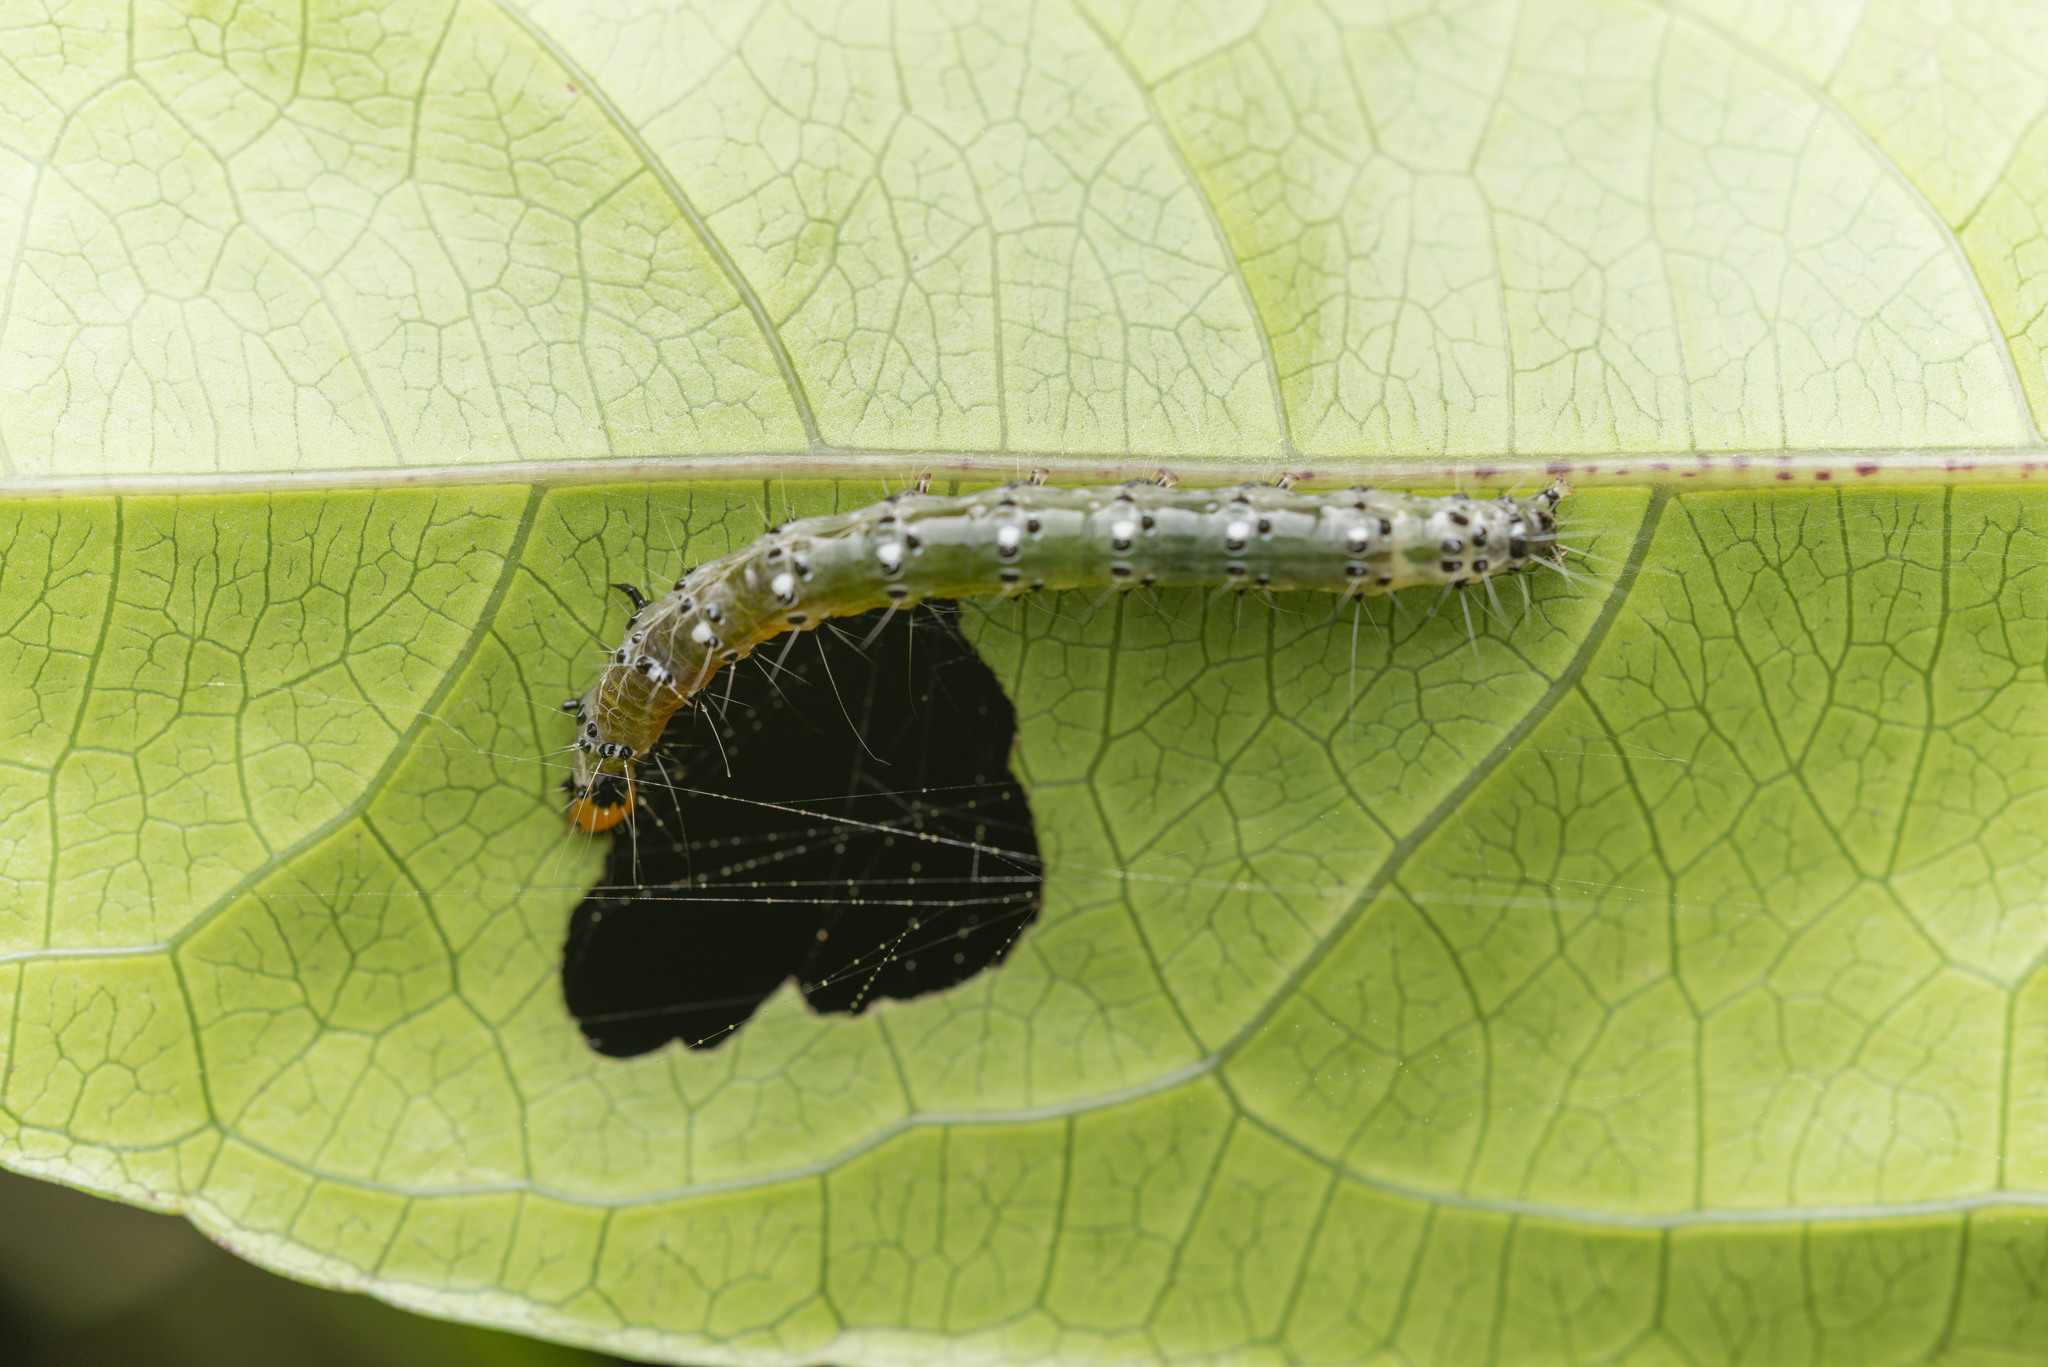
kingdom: Animalia
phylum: Arthropoda
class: Insecta
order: Lepidoptera
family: Crambidae
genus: Filodes
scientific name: Filodes fulvidorsalis
